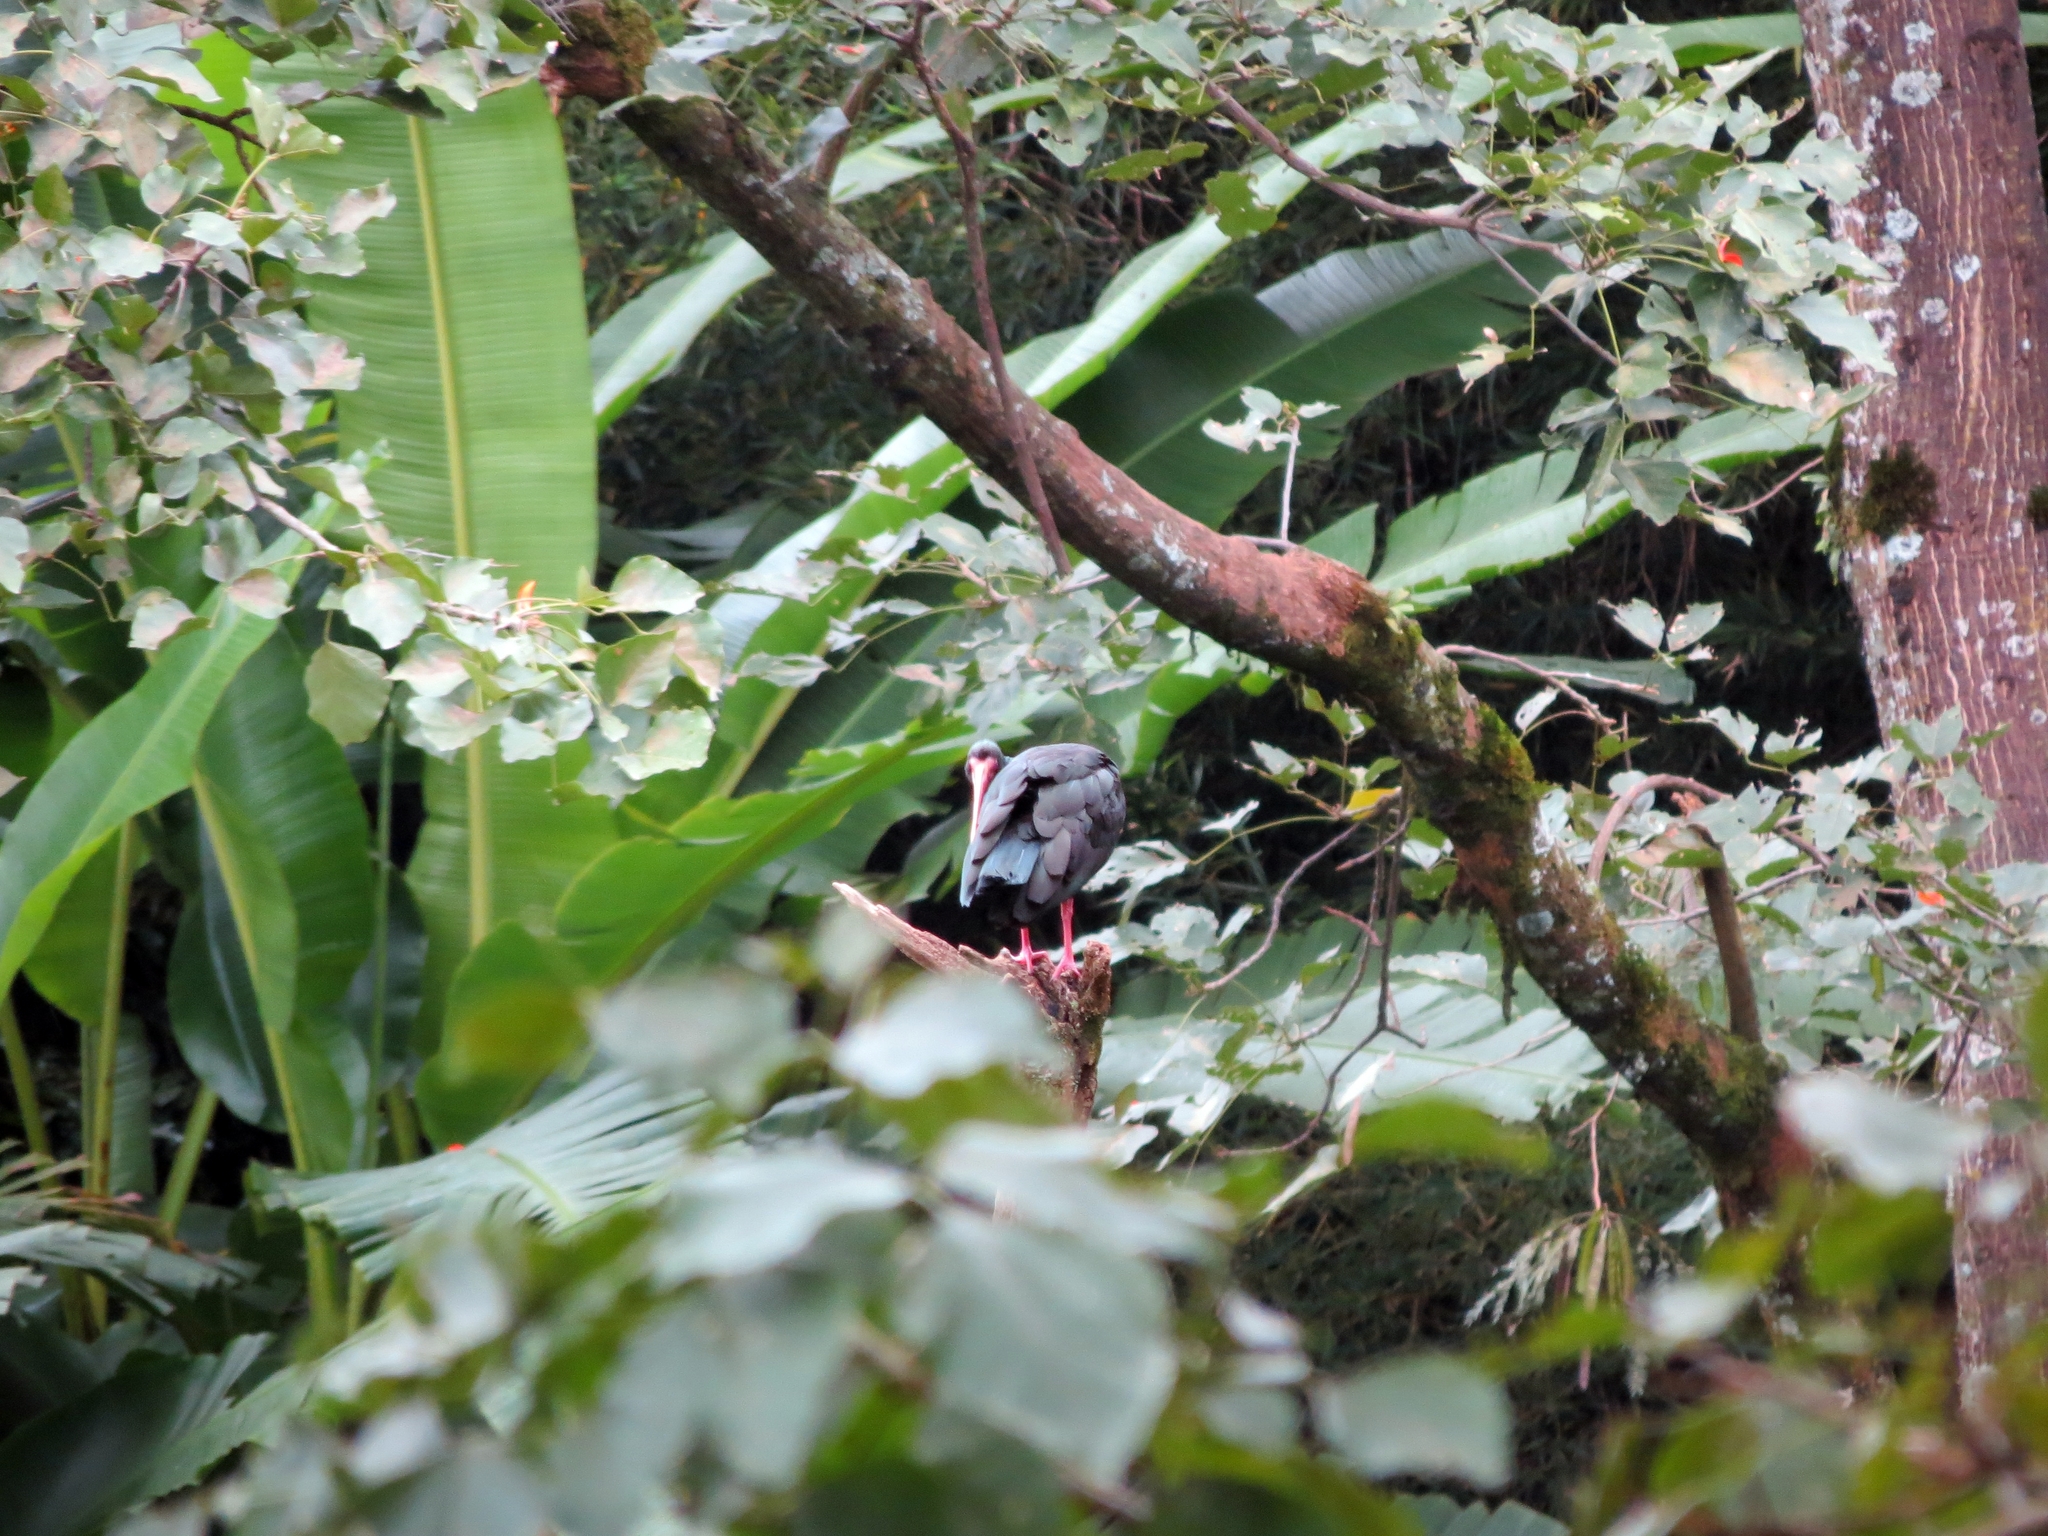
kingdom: Animalia
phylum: Chordata
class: Aves
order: Pelecaniformes
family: Threskiornithidae
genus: Phimosus
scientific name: Phimosus infuscatus
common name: Bare-faced ibis
